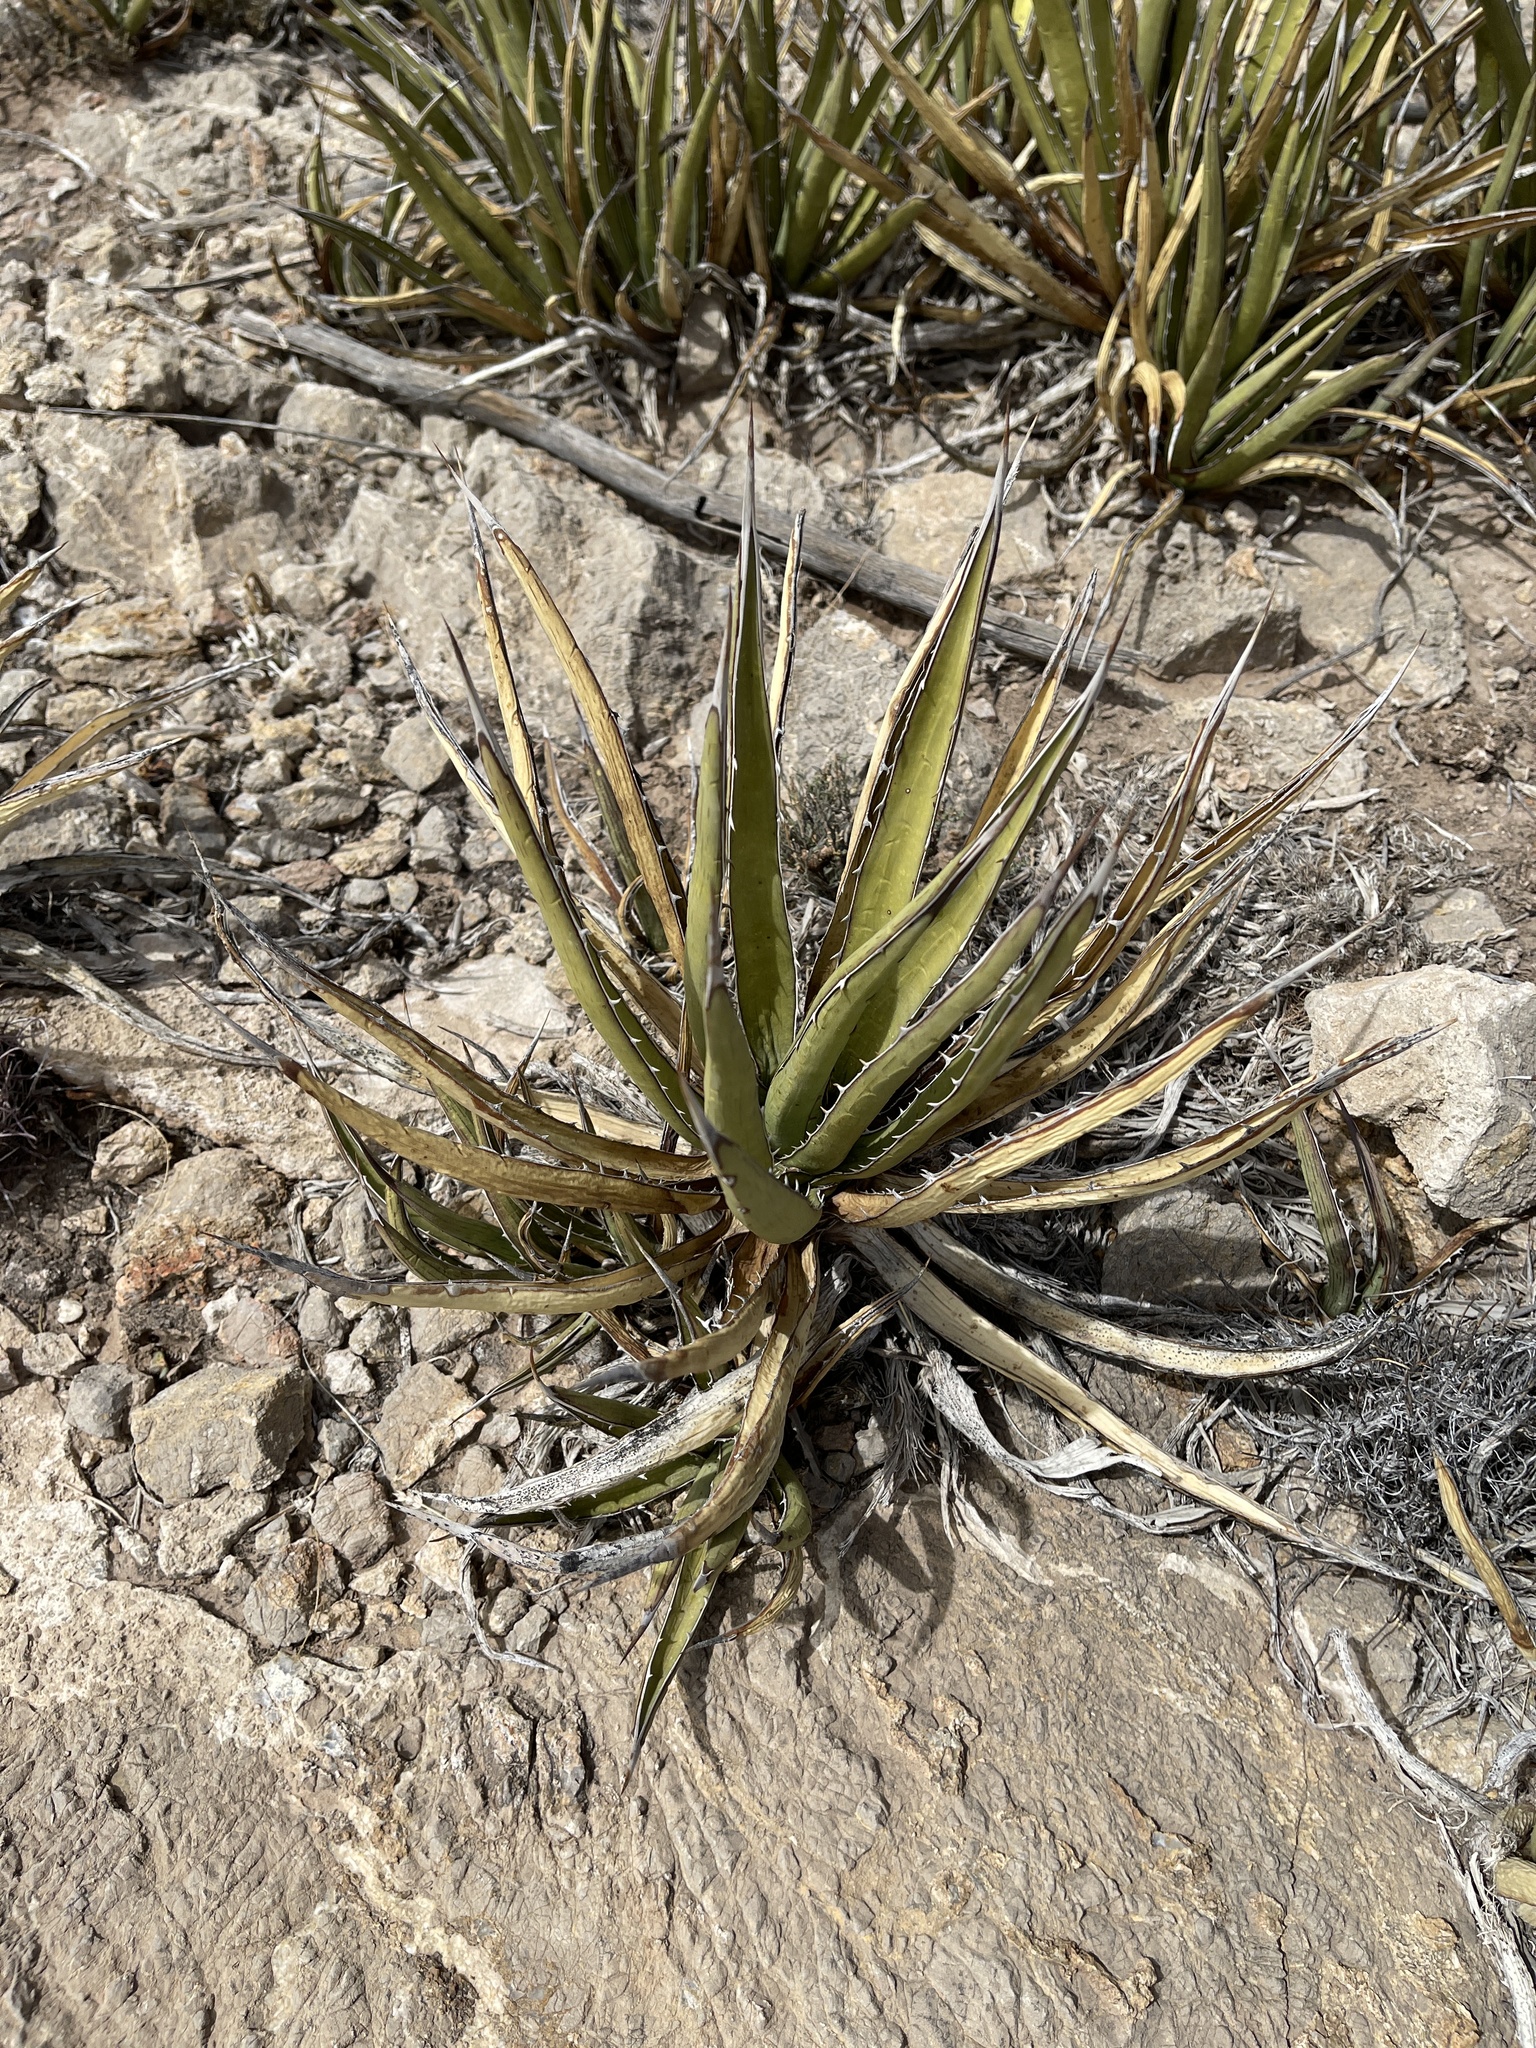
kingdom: Plantae
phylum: Tracheophyta
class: Liliopsida
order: Asparagales
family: Asparagaceae
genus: Agave
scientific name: Agave lechuguilla
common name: Lecheguilla agave
